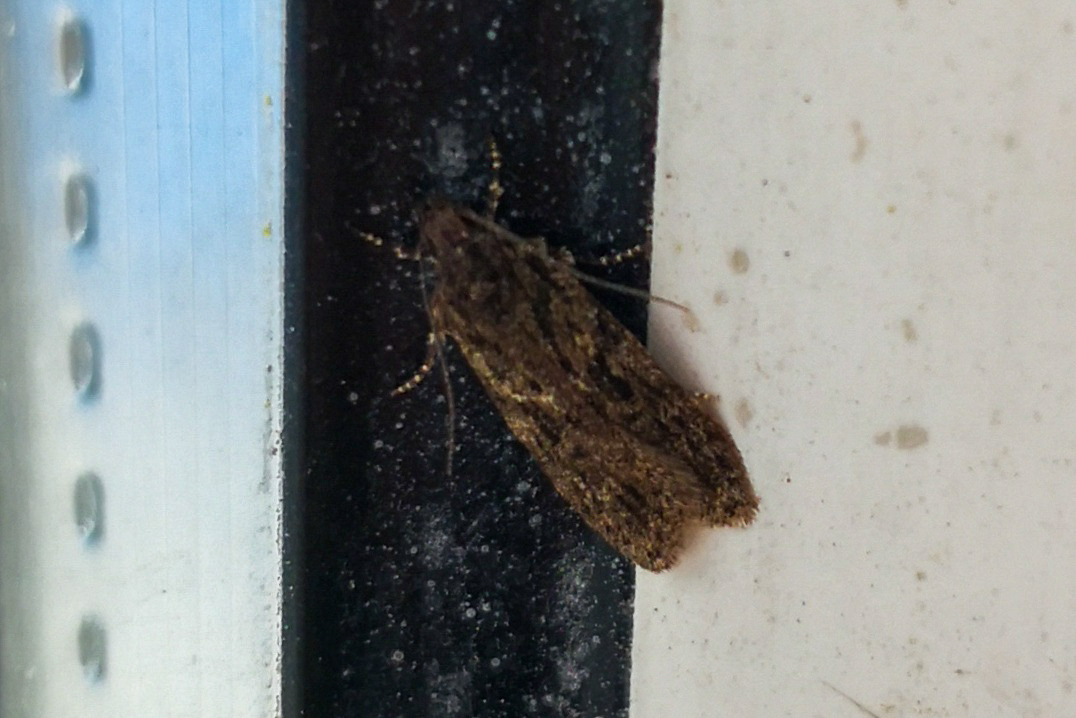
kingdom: Animalia
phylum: Arthropoda
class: Insecta
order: Lepidoptera
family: Gelechiidae
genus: Gelechia
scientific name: Gelechia muscosella
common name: Grey sallow groundling
